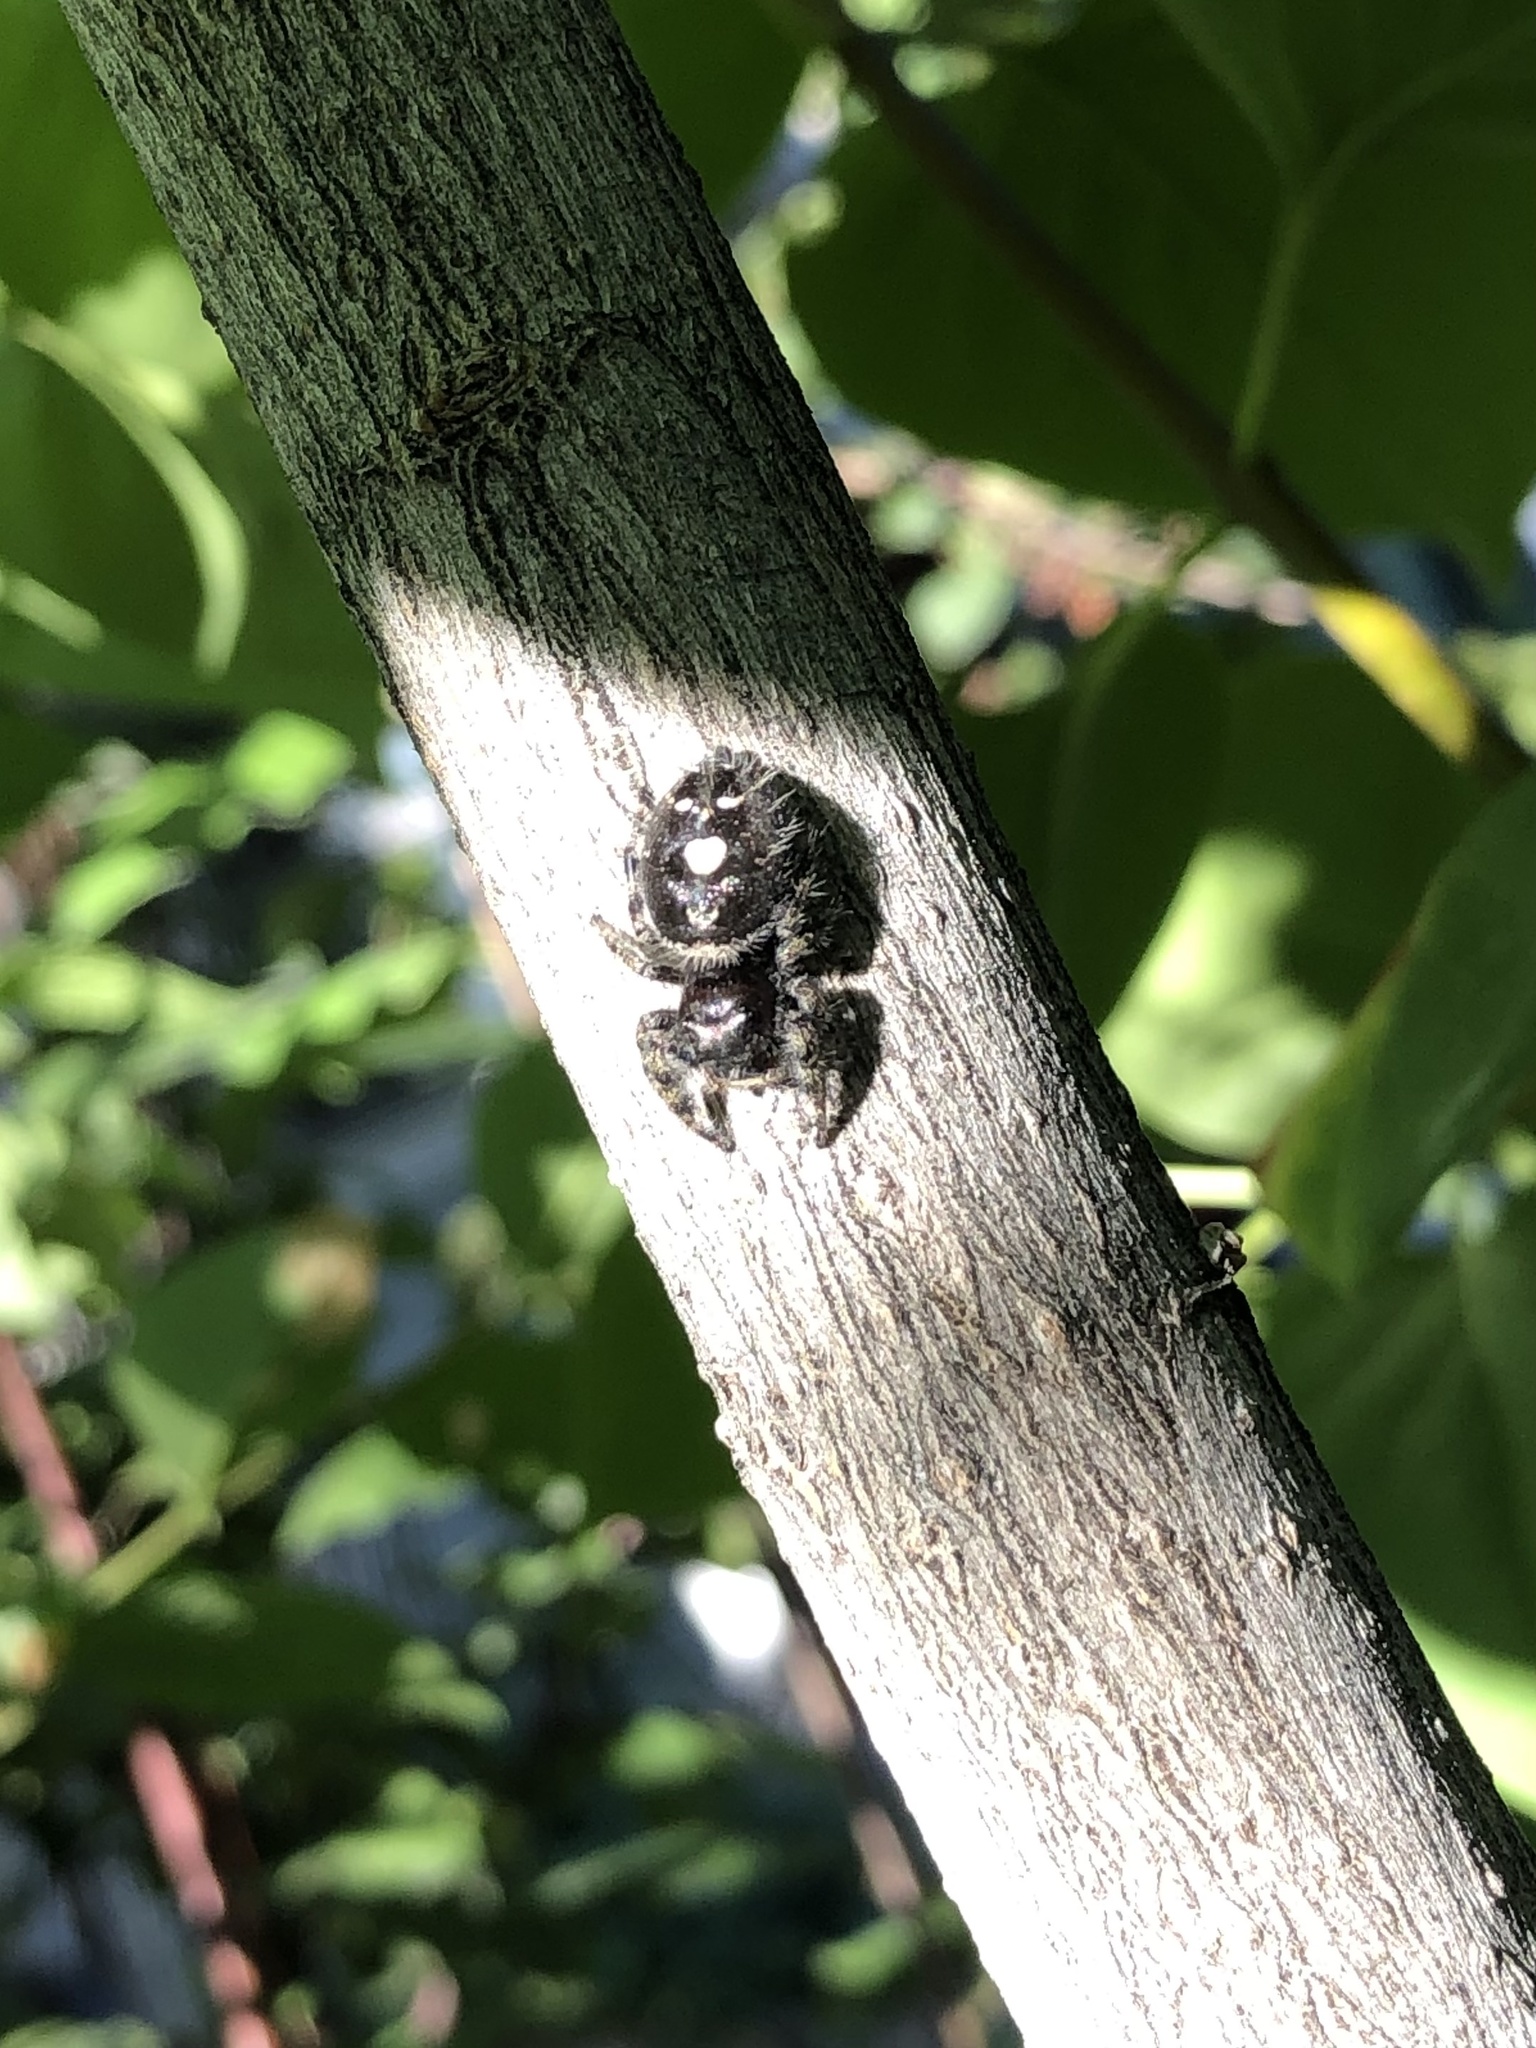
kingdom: Animalia
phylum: Arthropoda
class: Arachnida
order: Araneae
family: Salticidae
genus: Phidippus
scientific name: Phidippus audax
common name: Bold jumper
